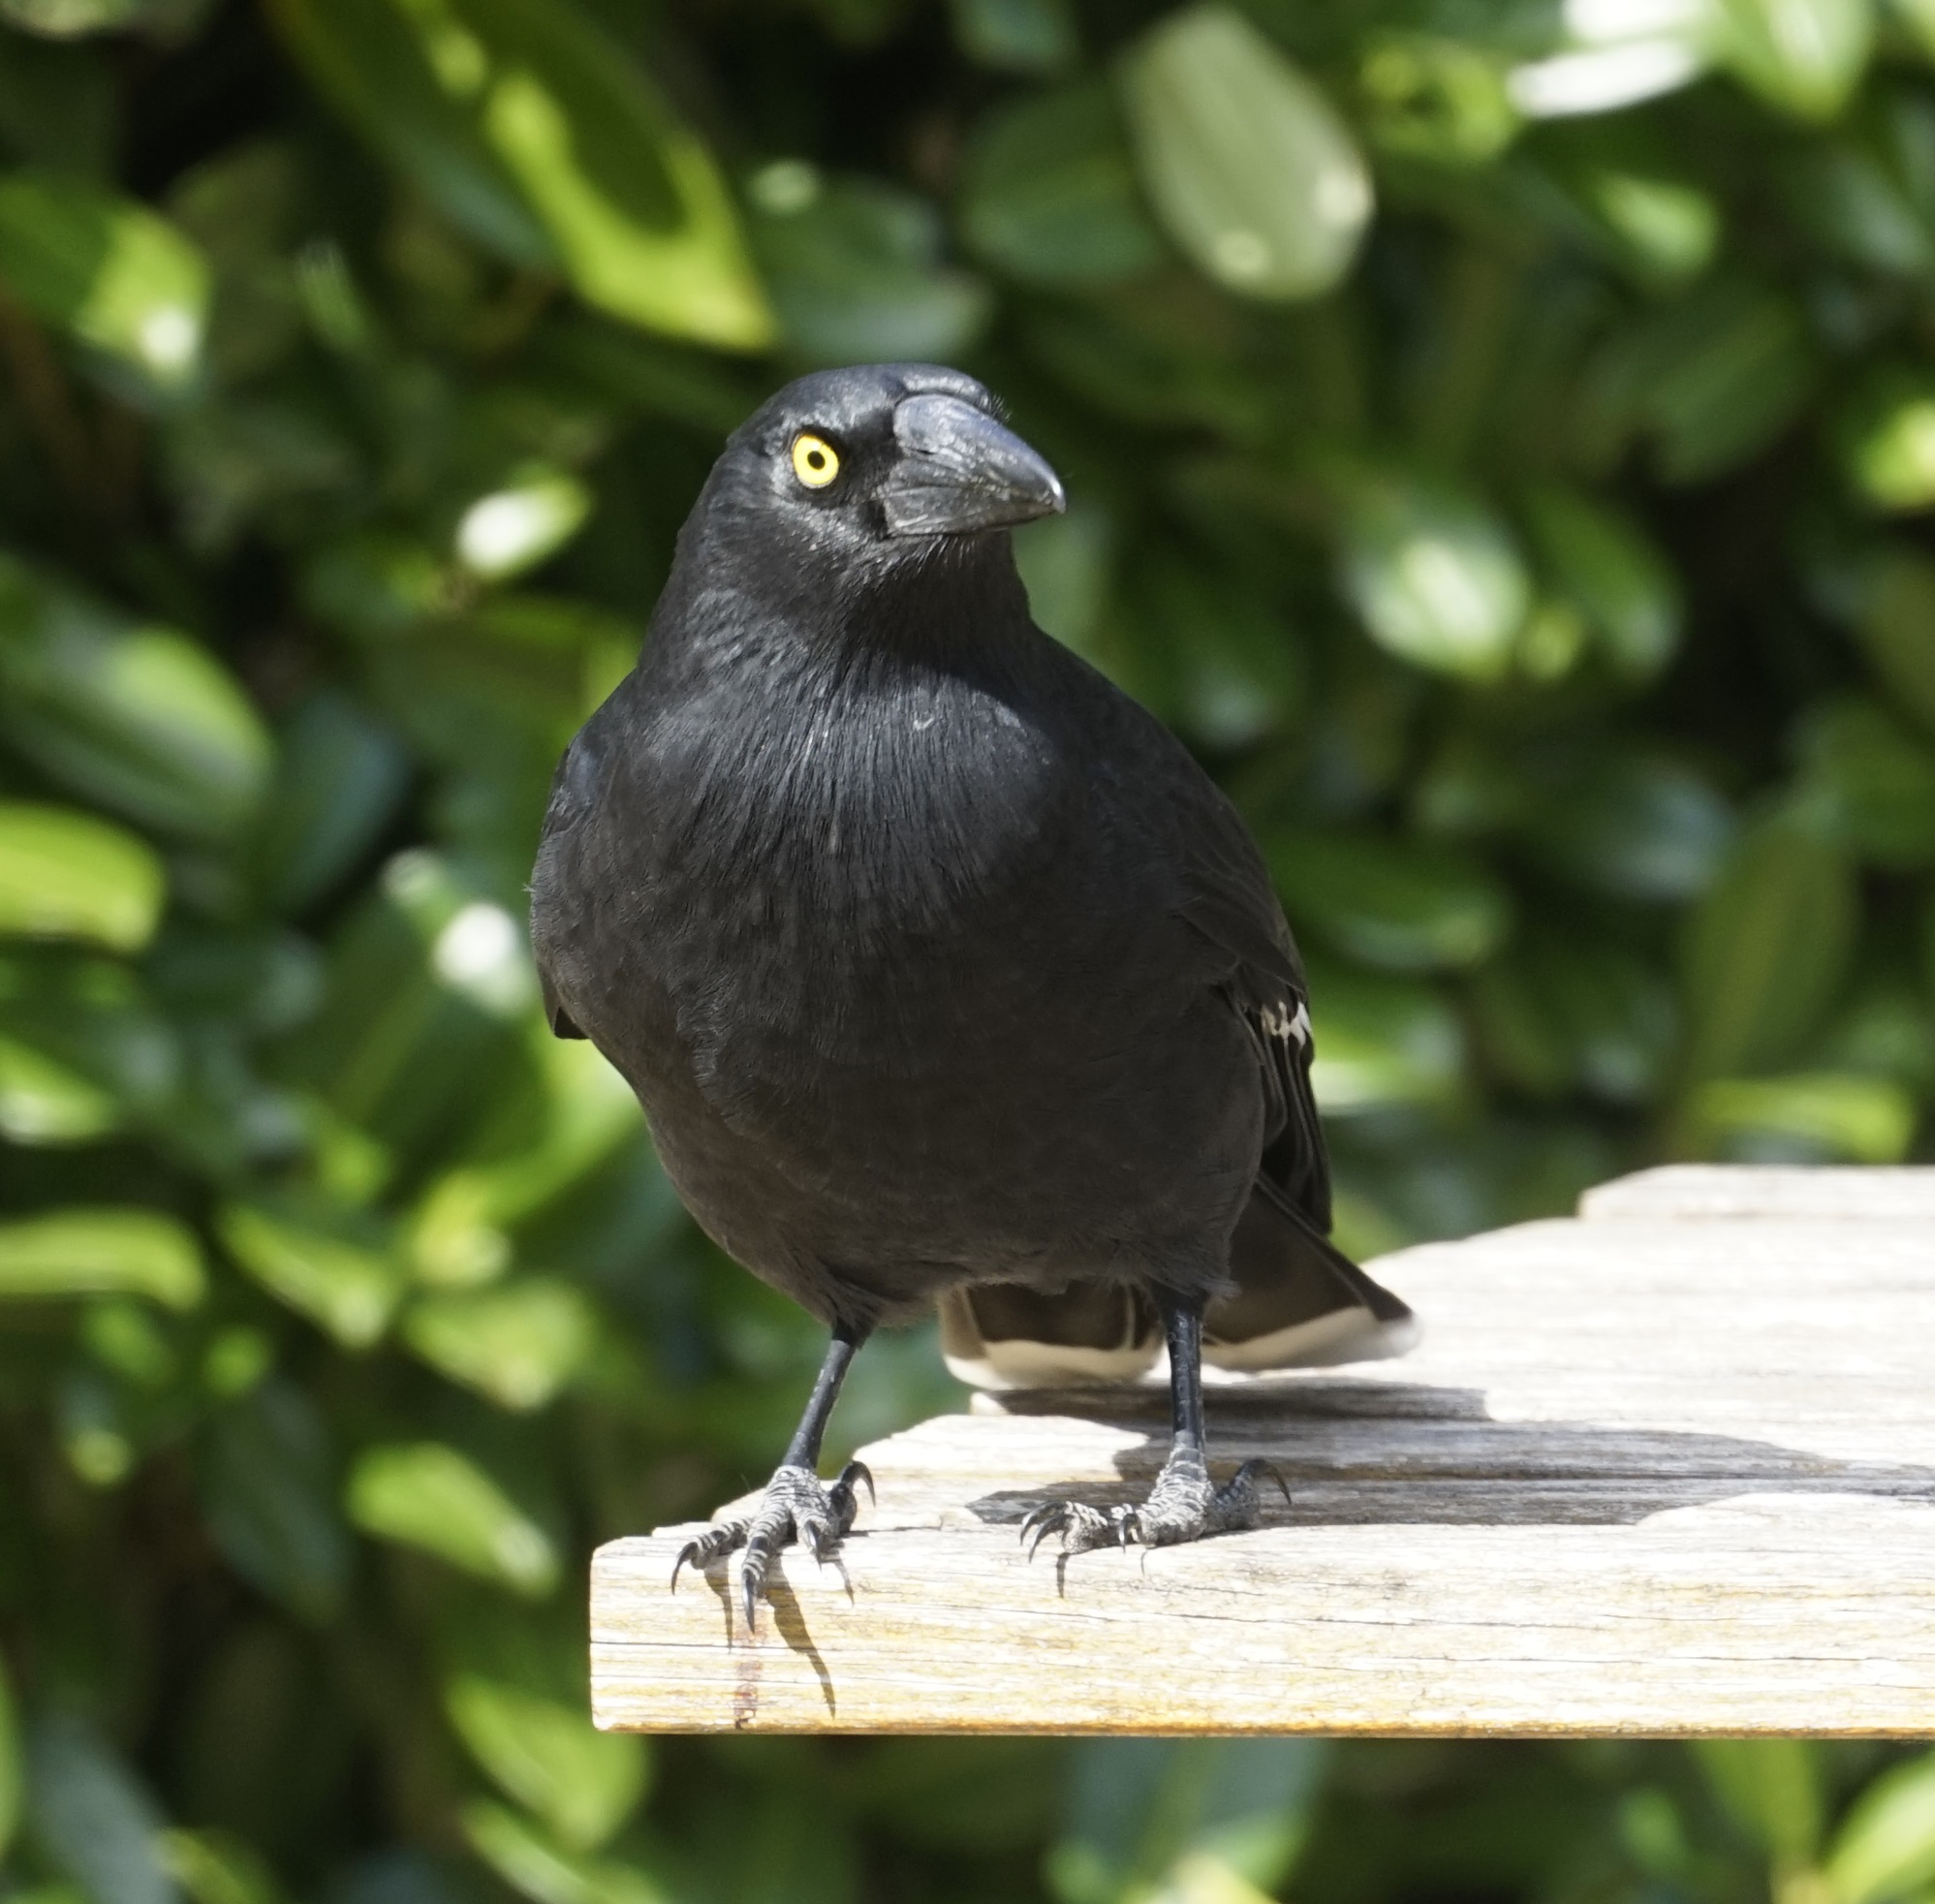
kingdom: Animalia
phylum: Chordata
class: Aves
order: Passeriformes
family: Cracticidae
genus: Strepera
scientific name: Strepera graculina
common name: Pied currawong
